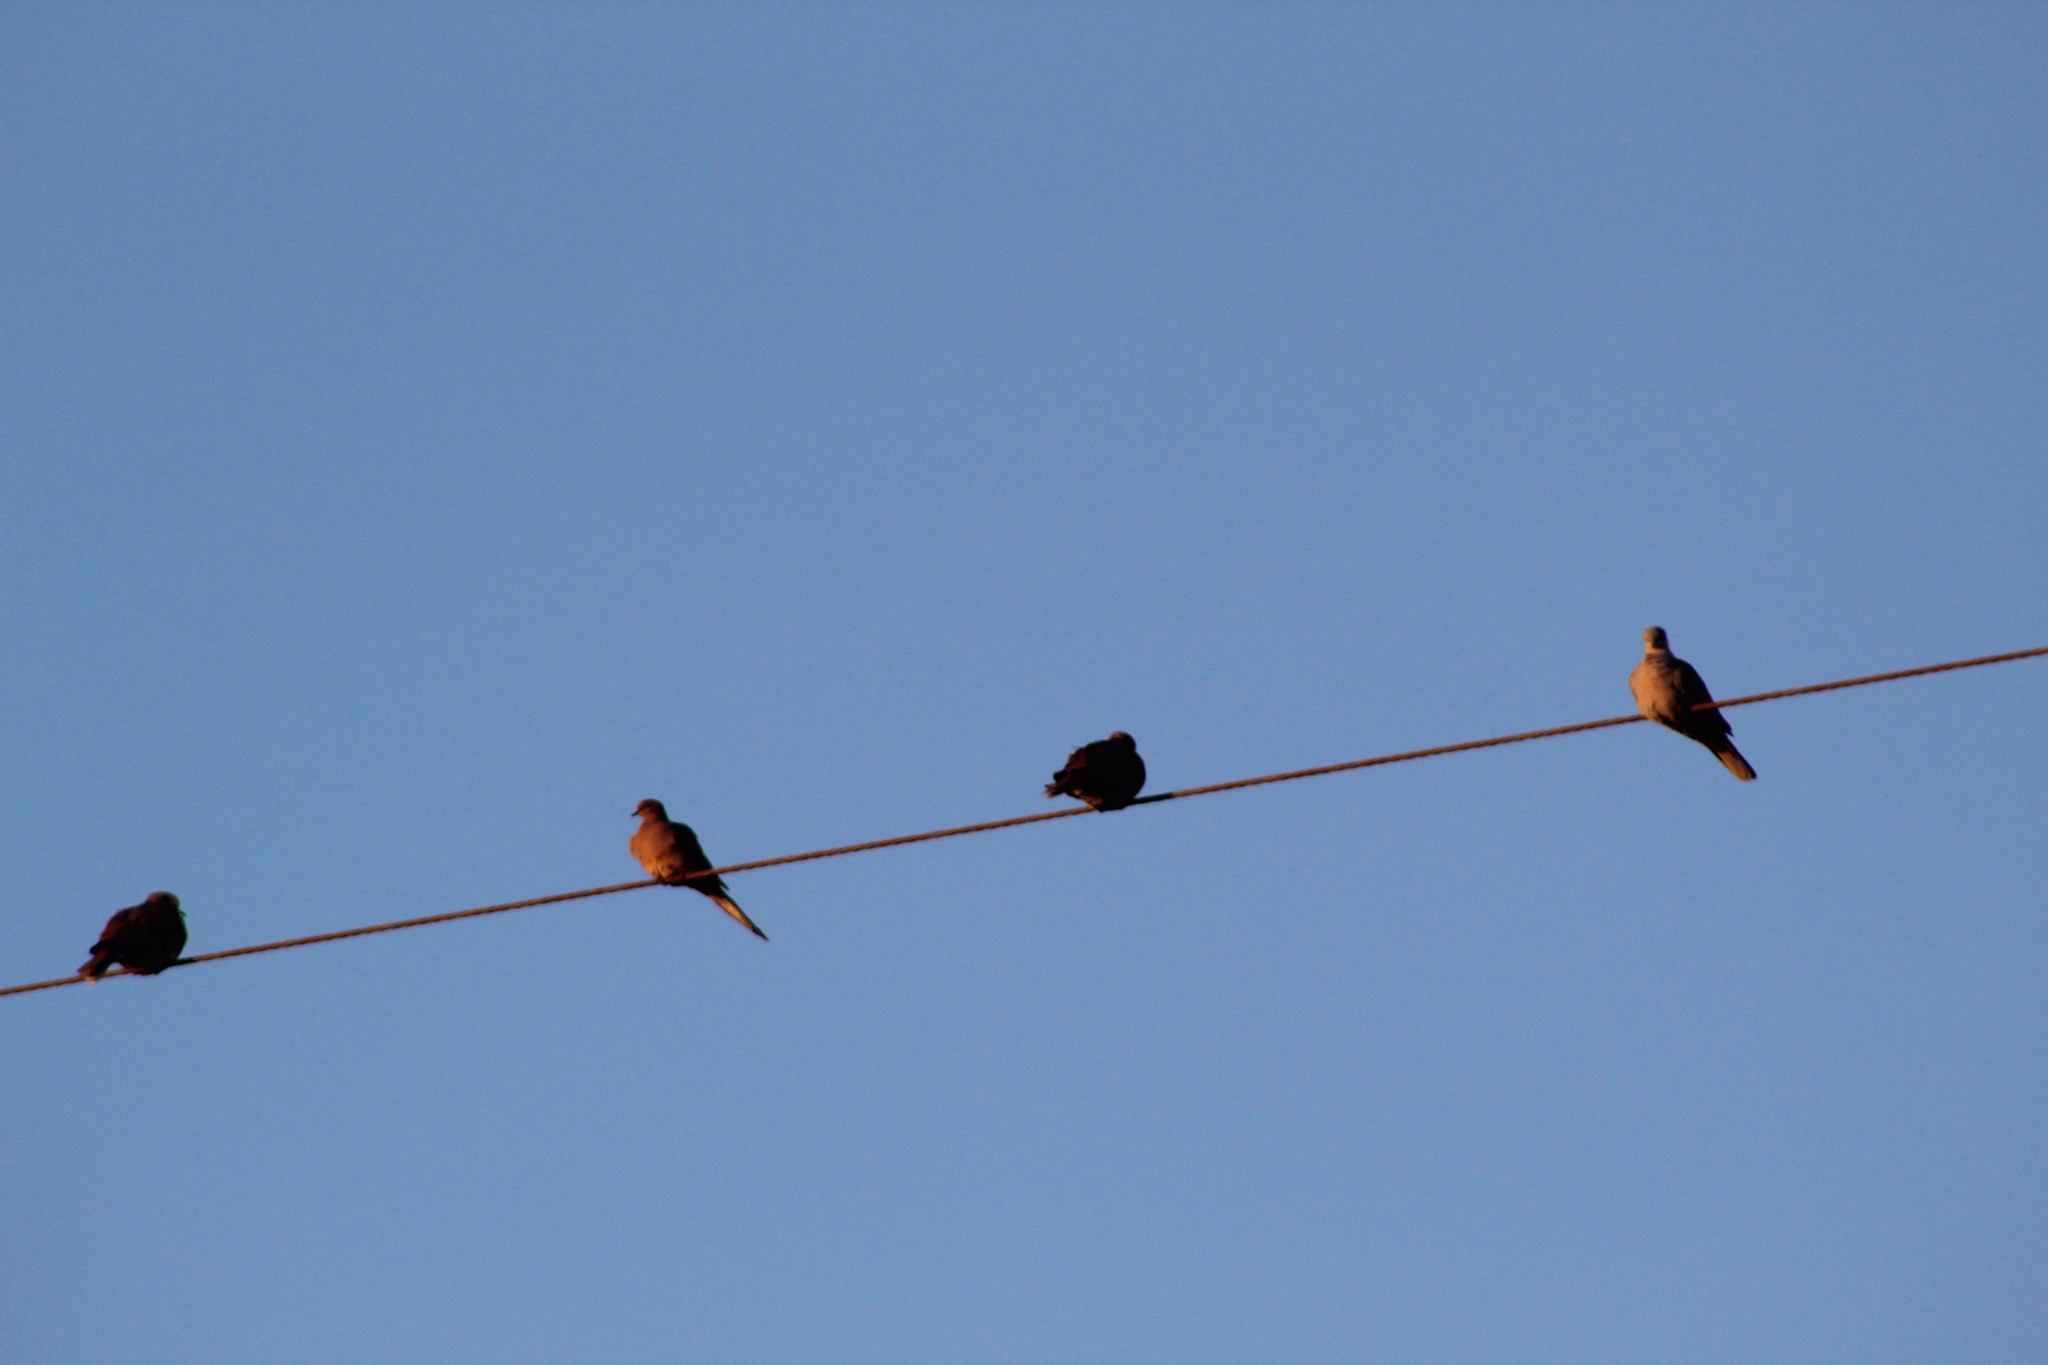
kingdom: Animalia
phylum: Chordata
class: Aves
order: Columbiformes
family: Columbidae
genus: Zenaida
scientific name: Zenaida macroura
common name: Mourning dove
